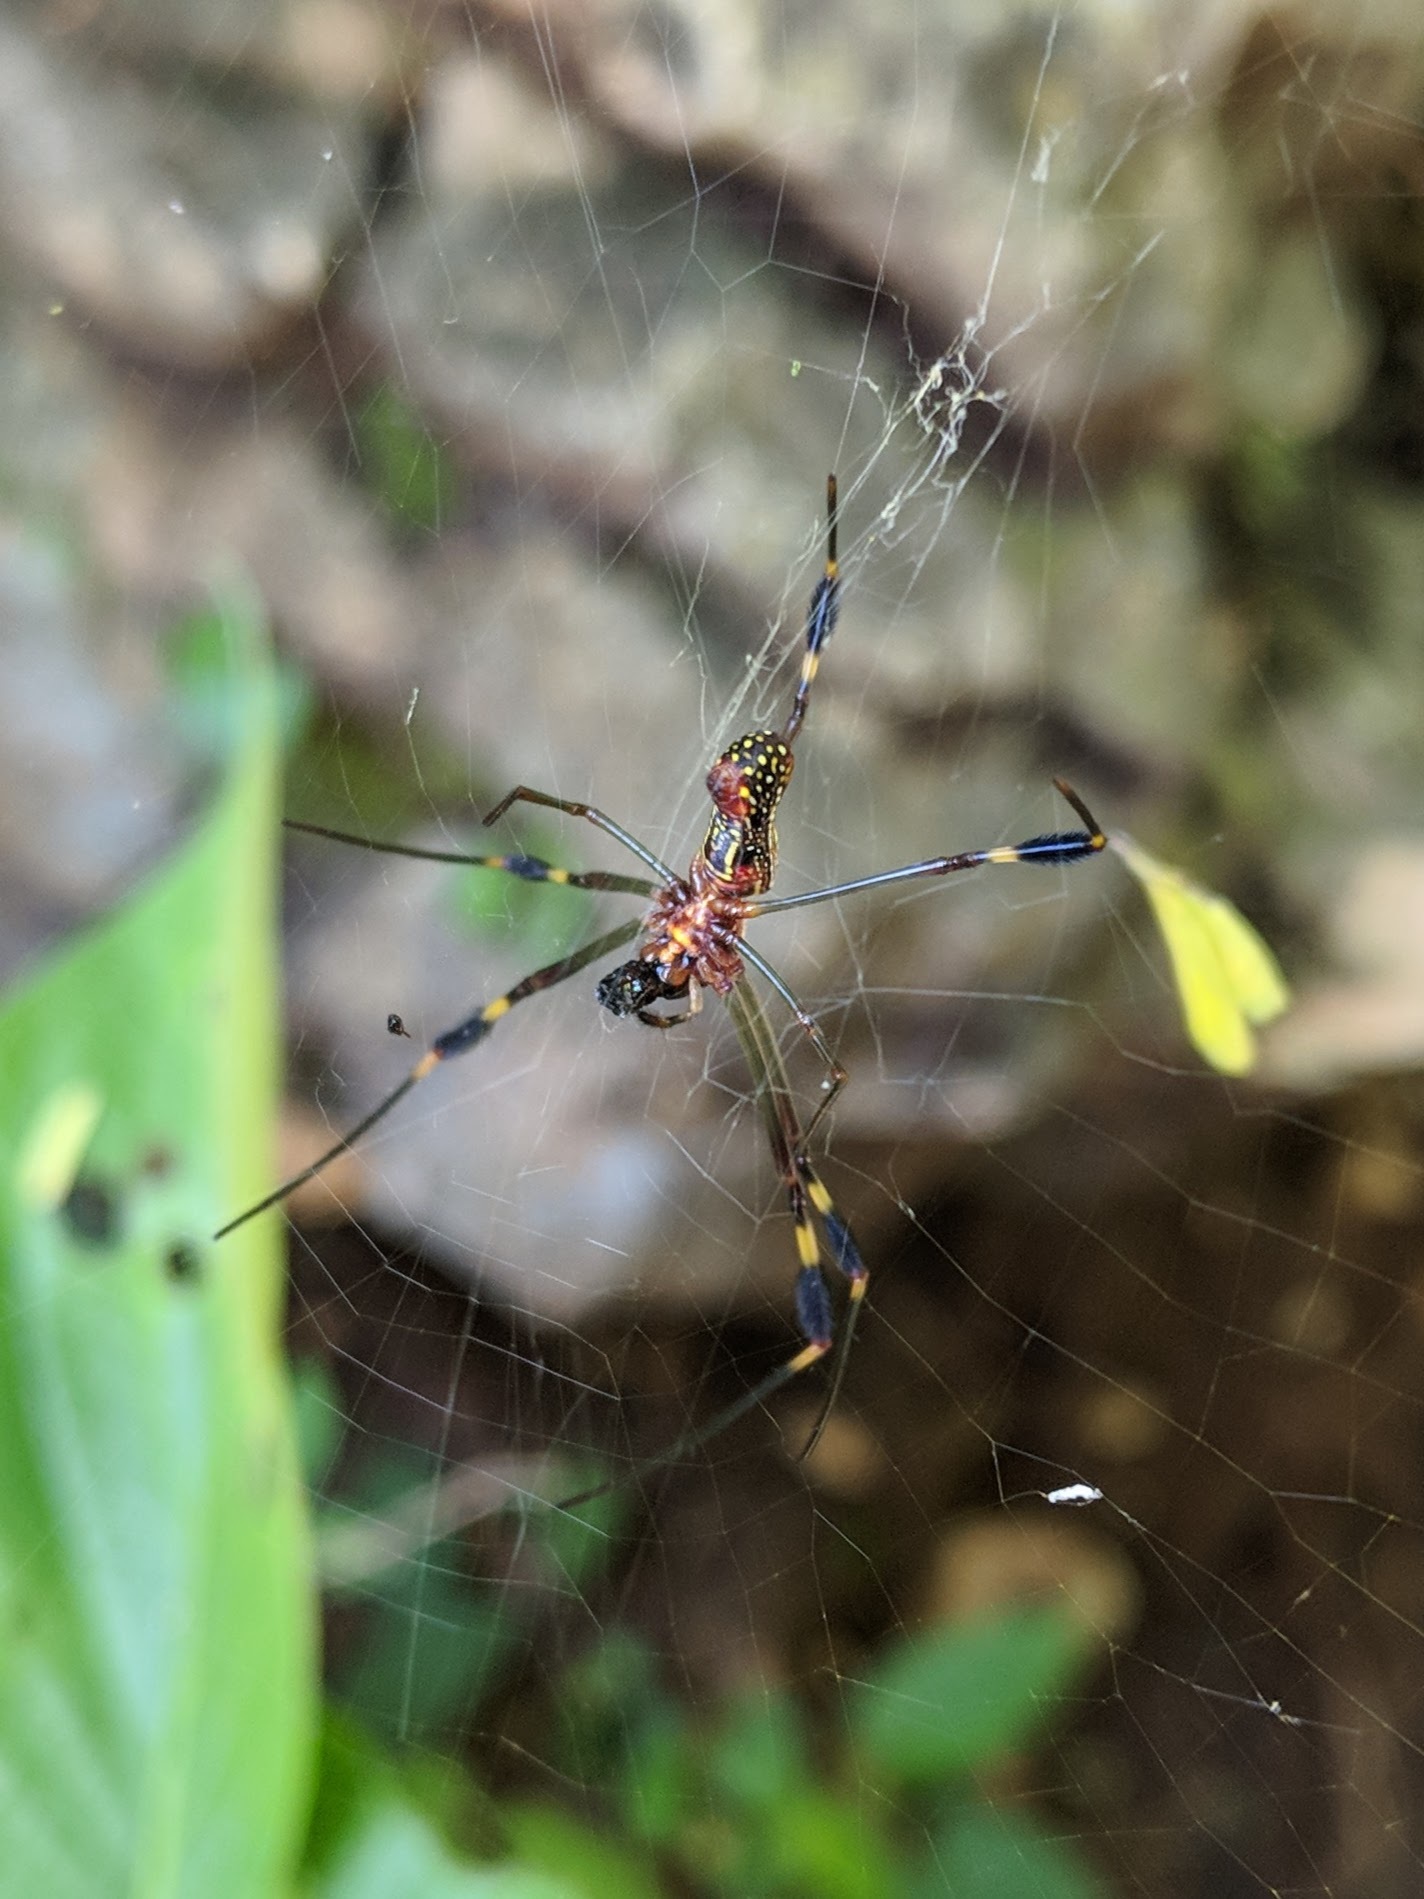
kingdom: Animalia
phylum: Arthropoda
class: Arachnida
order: Araneae
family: Araneidae
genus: Trichonephila
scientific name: Trichonephila clavipes
